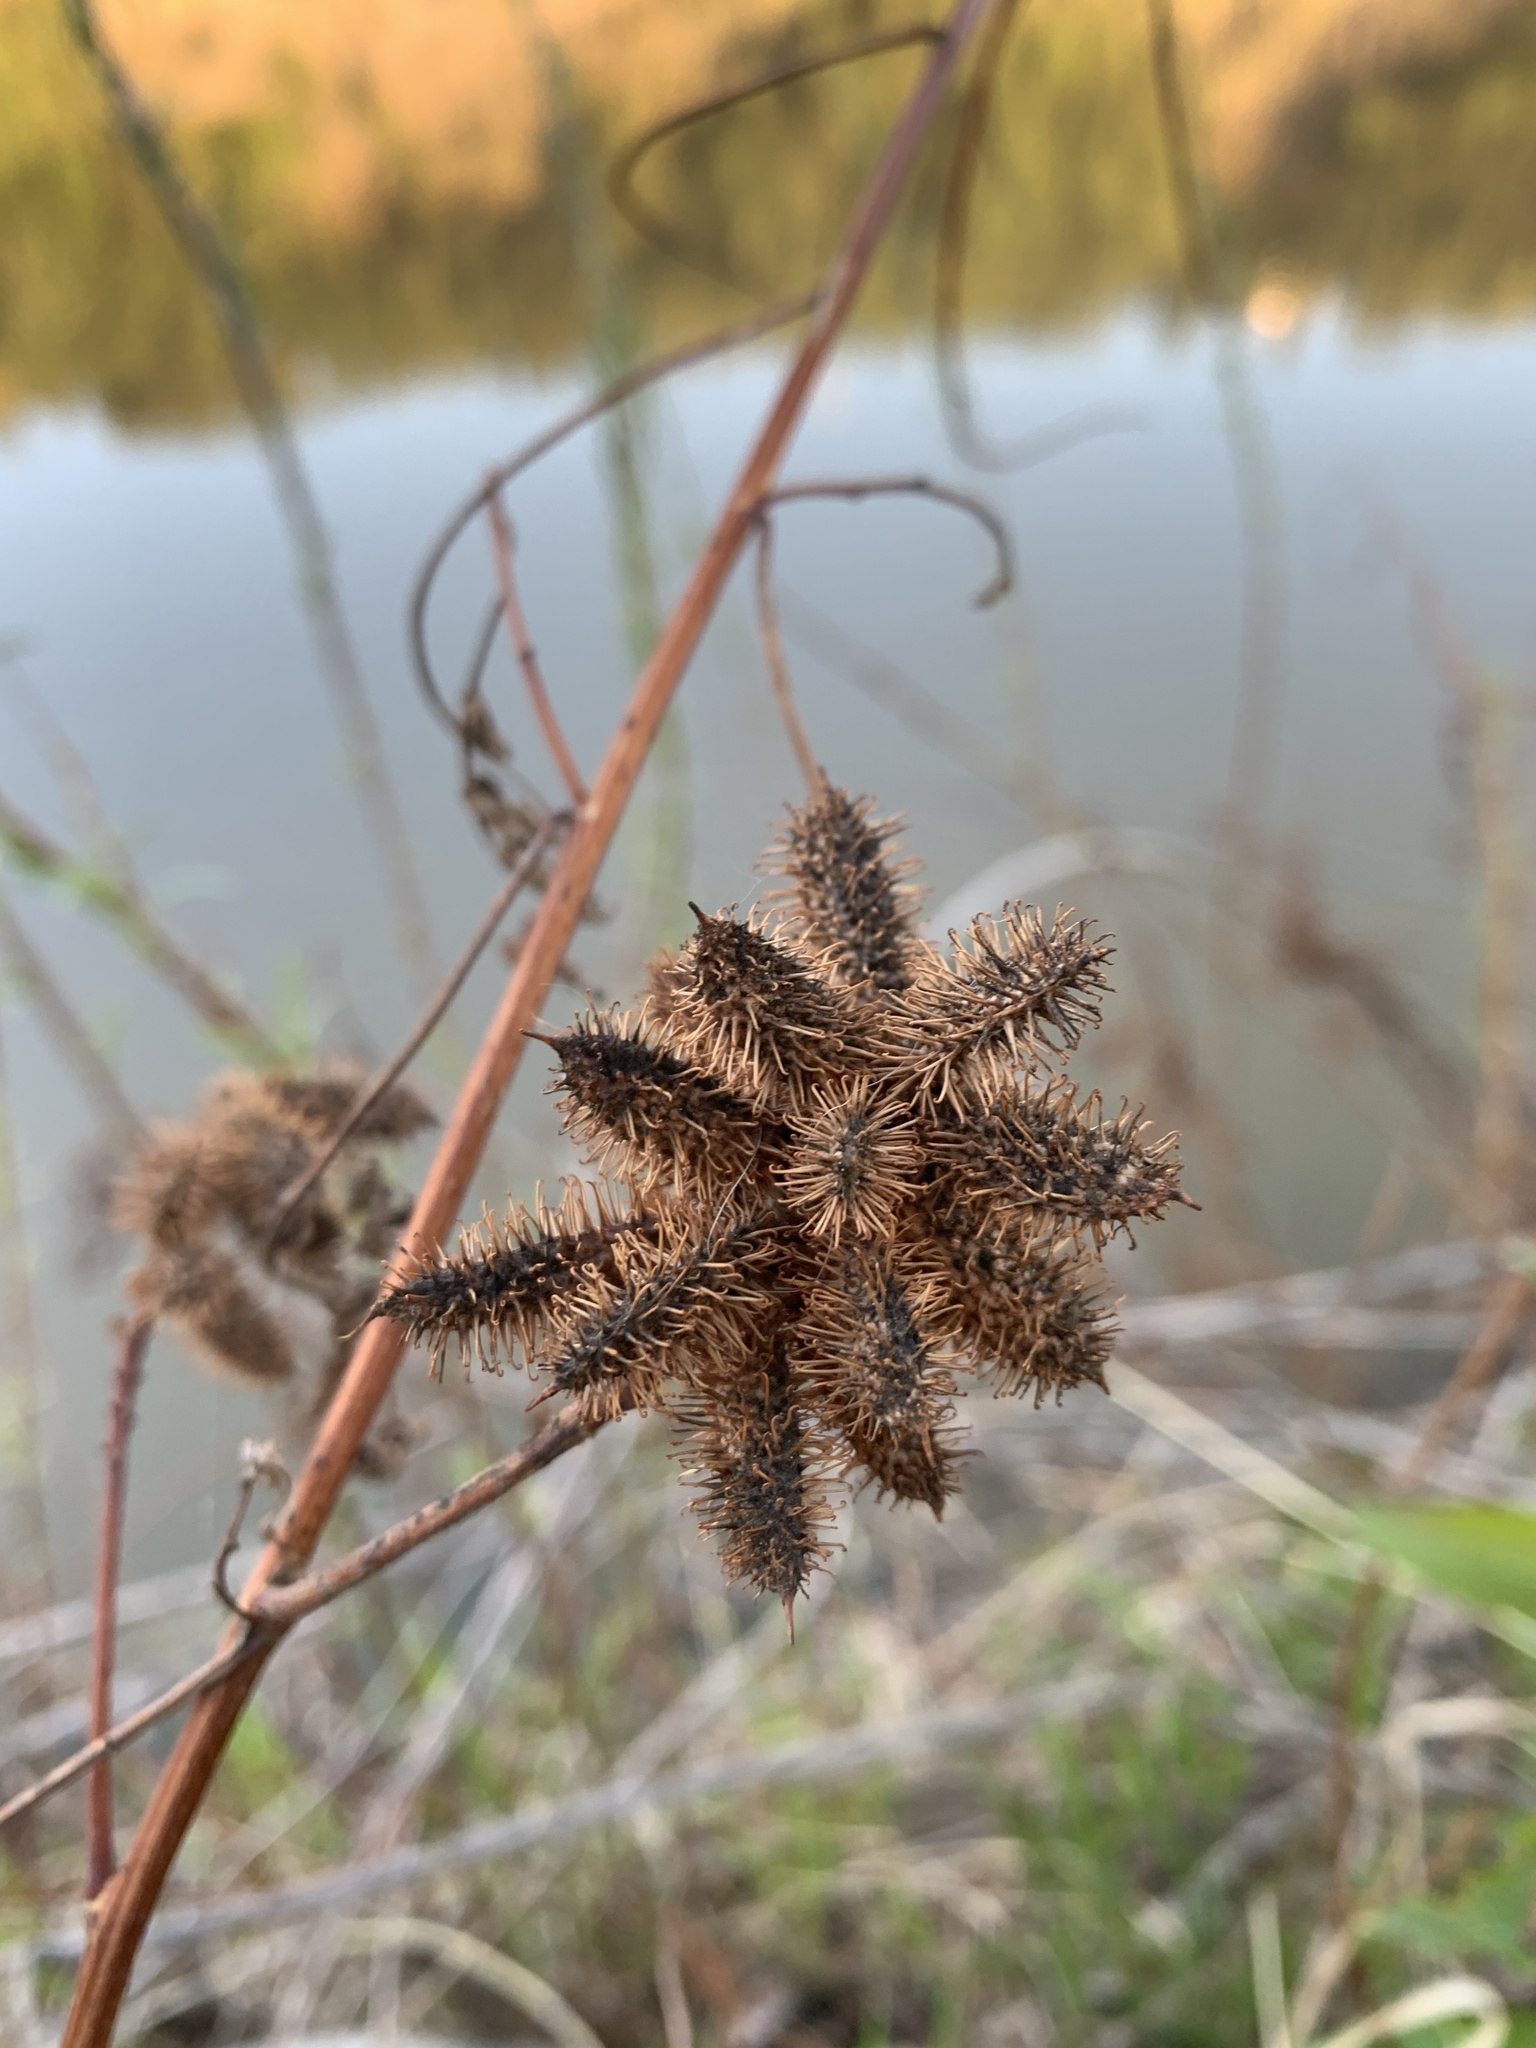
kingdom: Plantae
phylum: Tracheophyta
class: Magnoliopsida
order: Fabales
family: Fabaceae
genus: Glycyrrhiza
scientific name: Glycyrrhiza lepidota
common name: American liquorice
